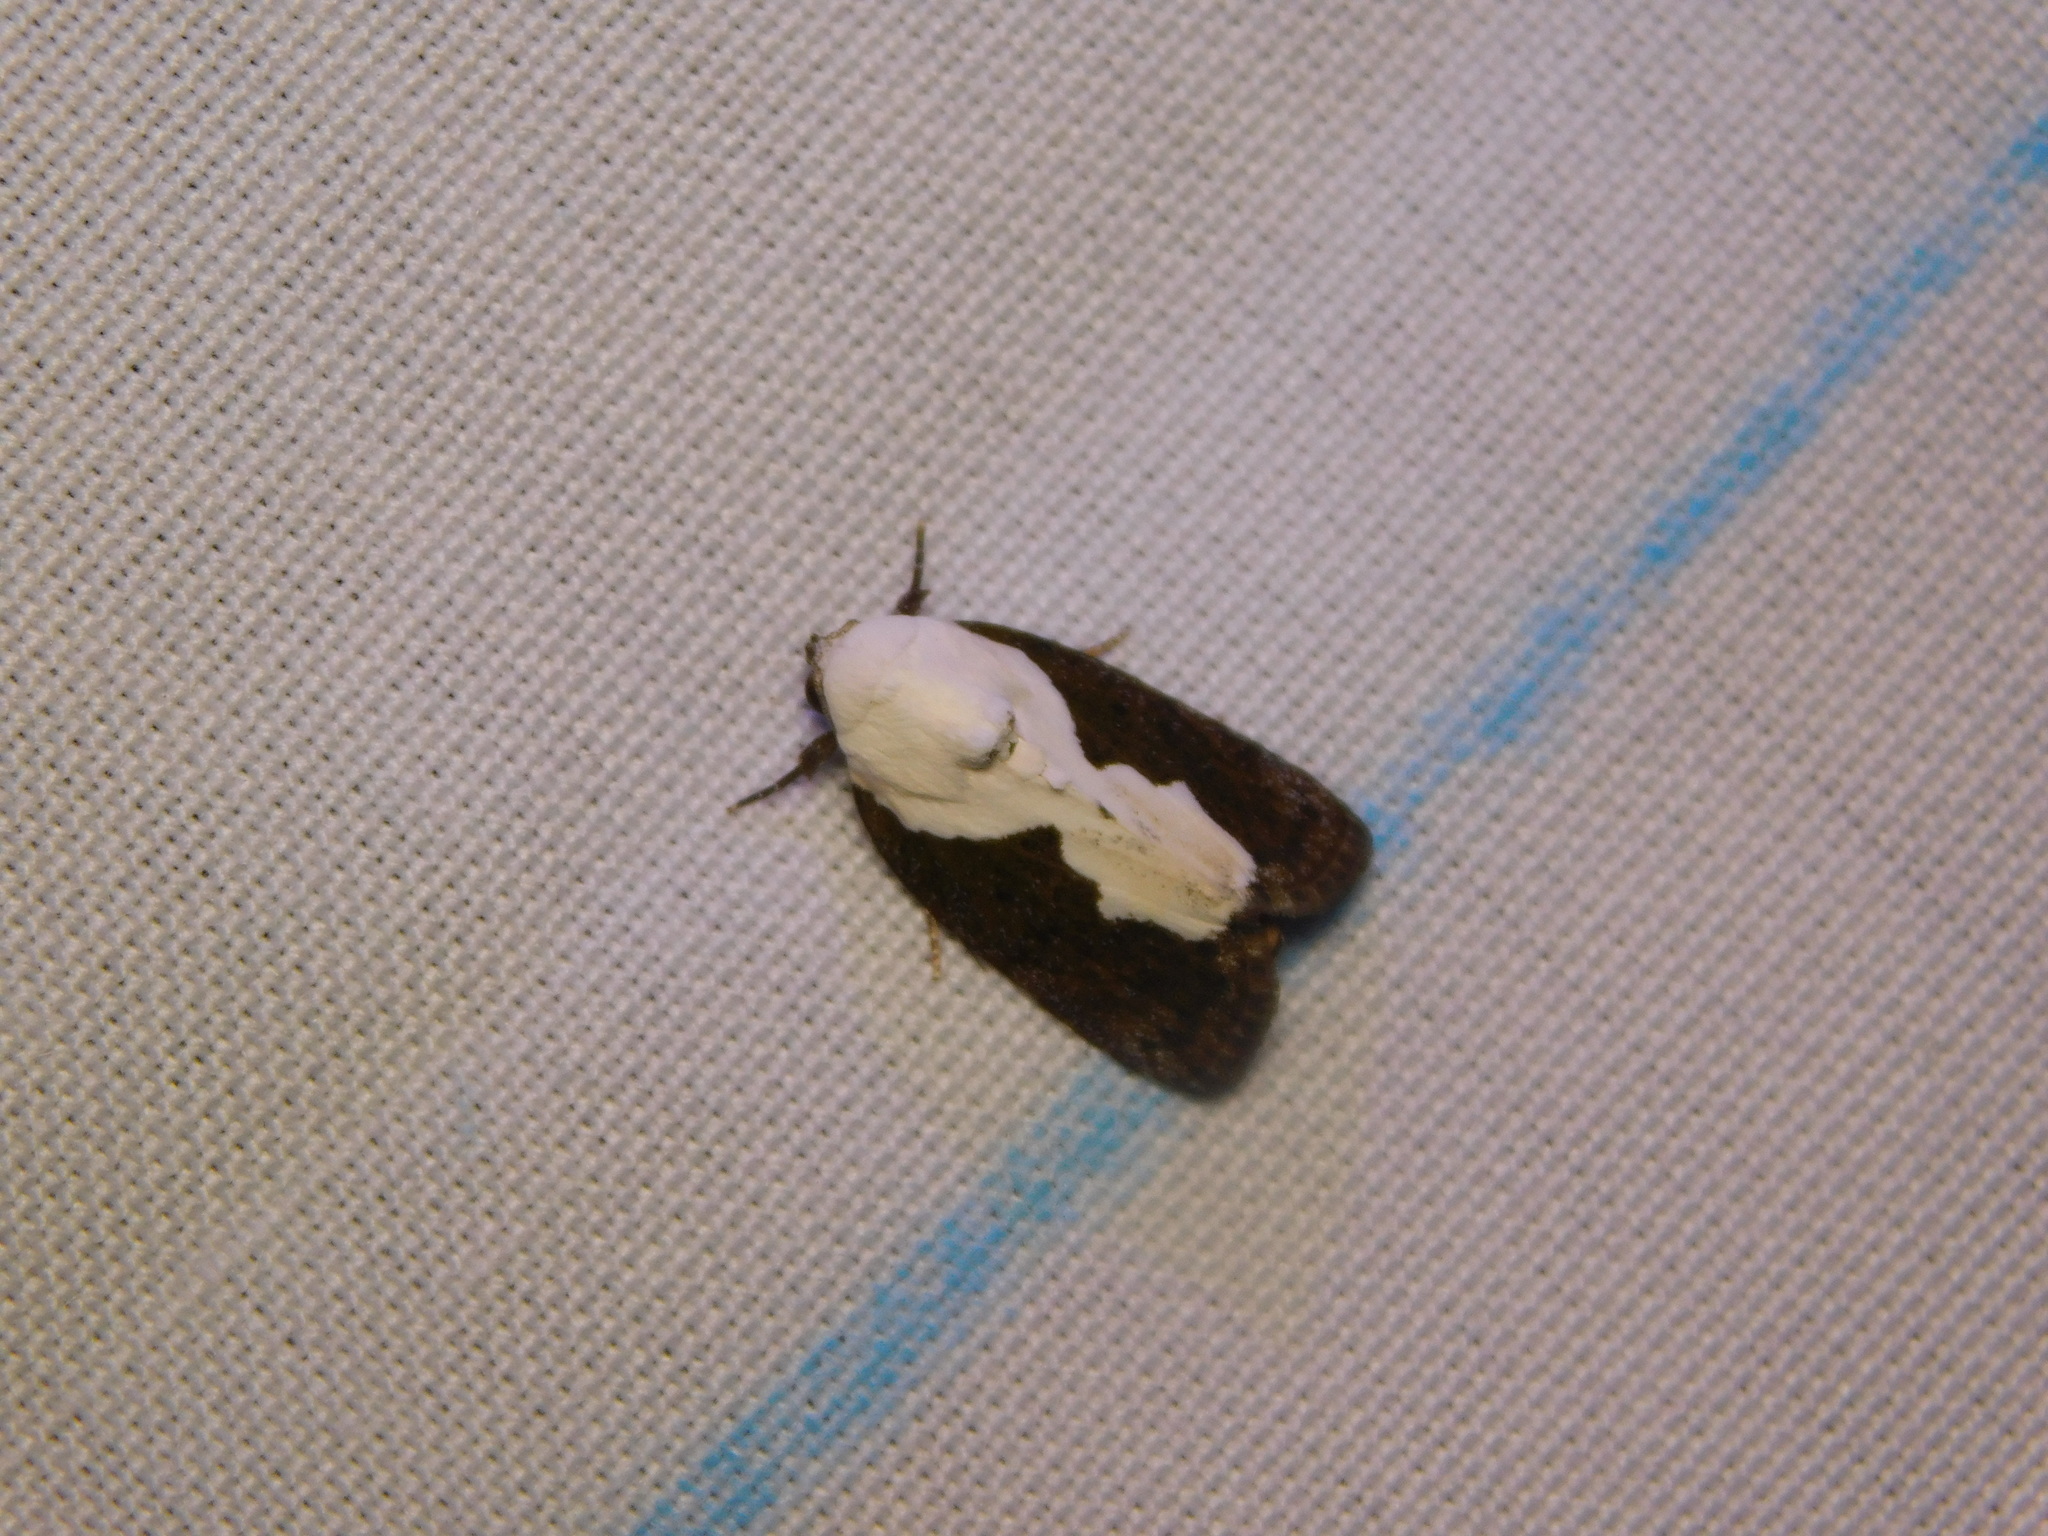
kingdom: Animalia
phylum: Arthropoda
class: Insecta
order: Lepidoptera
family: Nolidae
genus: Tathothripa
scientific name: Tathothripa continua
